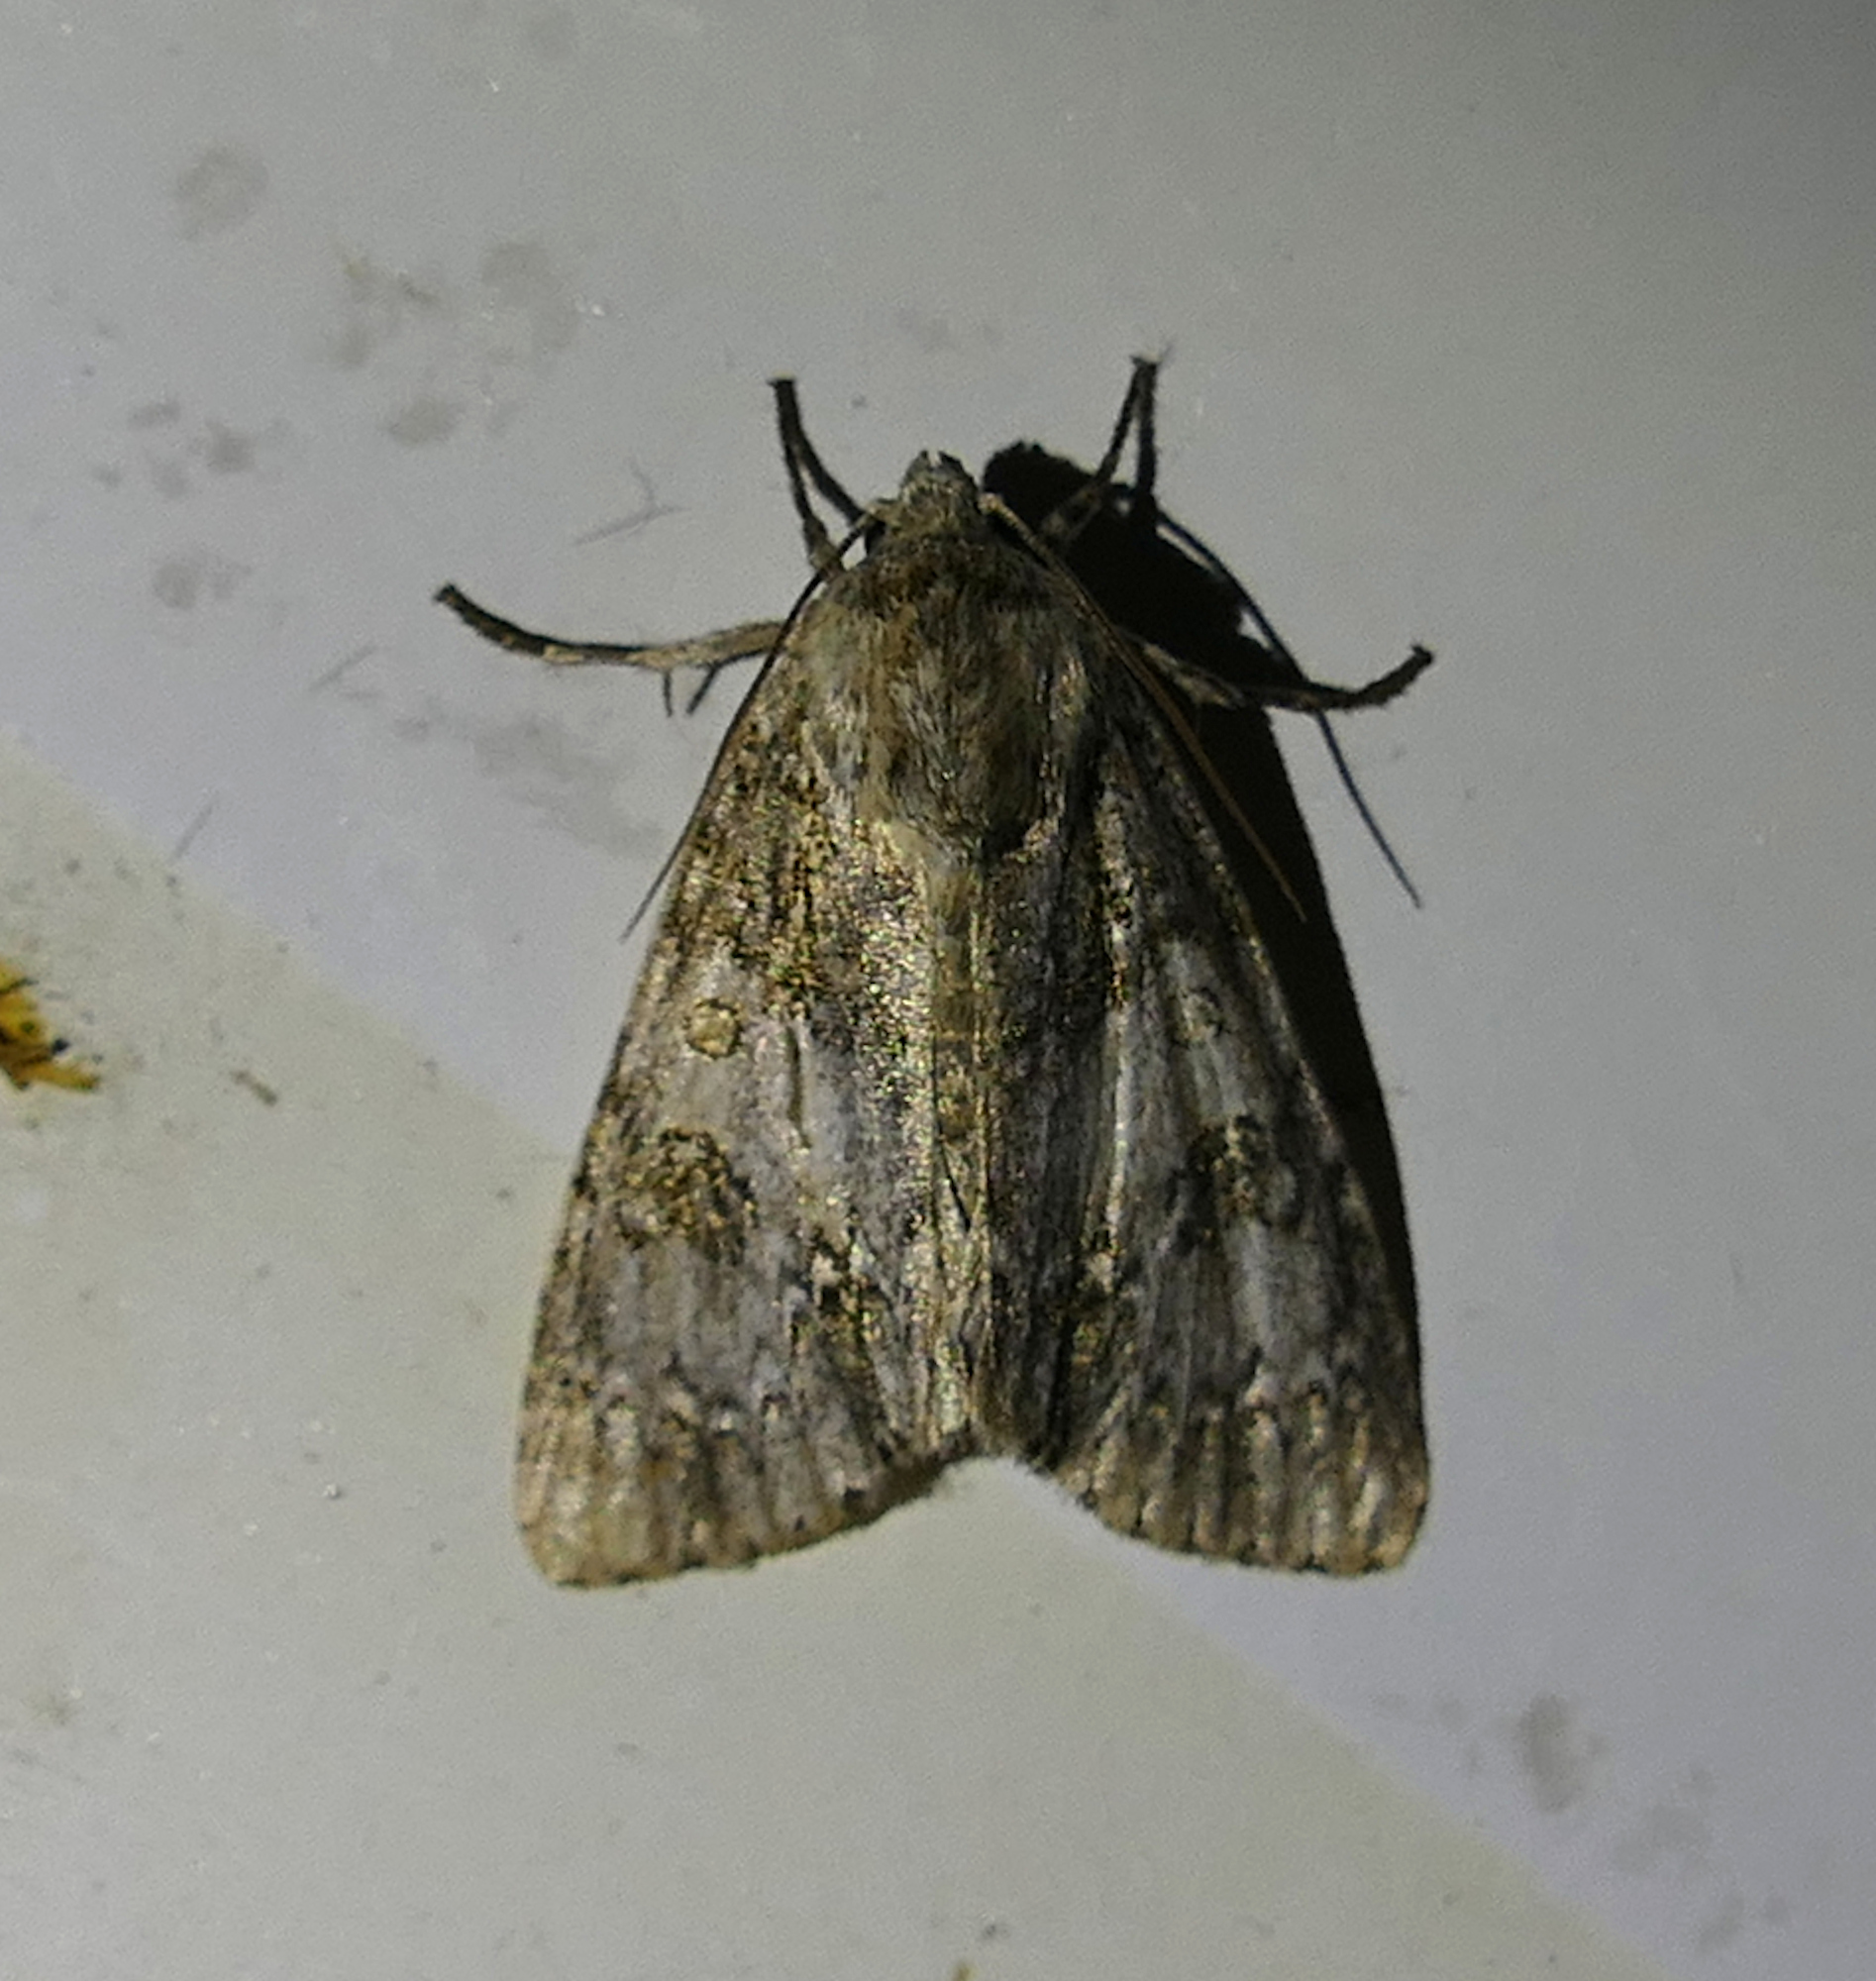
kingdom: Animalia
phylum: Arthropoda
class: Insecta
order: Lepidoptera
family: Noctuidae
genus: Acronicta
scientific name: Acronicta rubricoma
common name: Hackberry dagger
